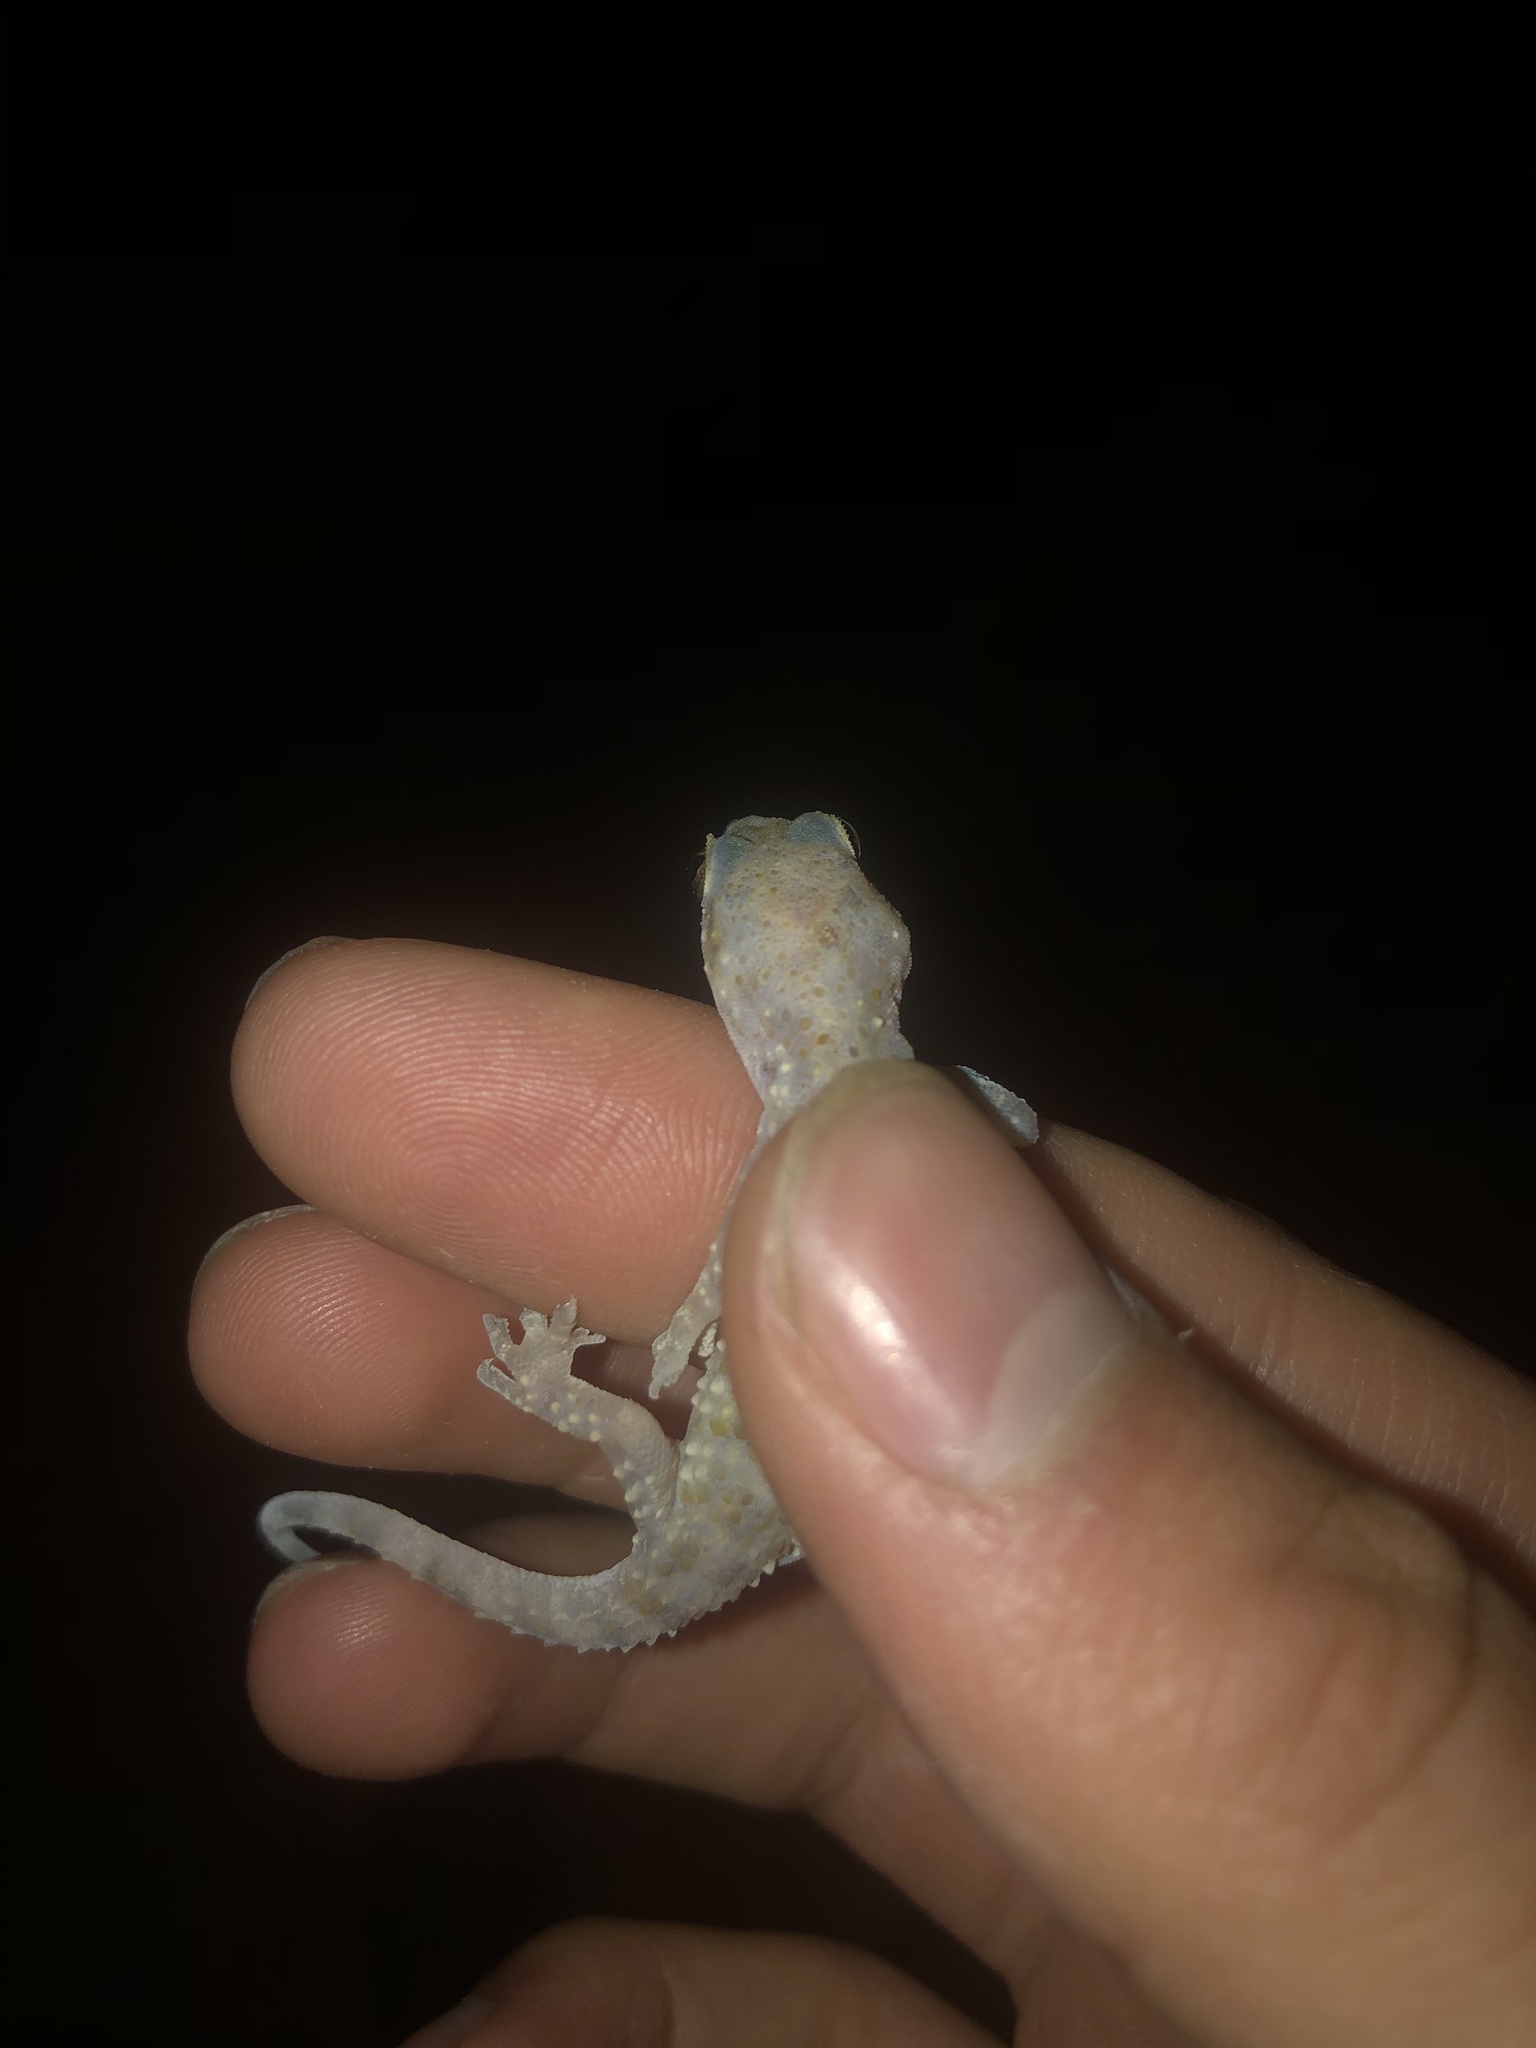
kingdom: Animalia
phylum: Chordata
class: Squamata
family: Gekkonidae
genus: Hemidactylus
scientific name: Hemidactylus turcicus
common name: Turkish gecko
